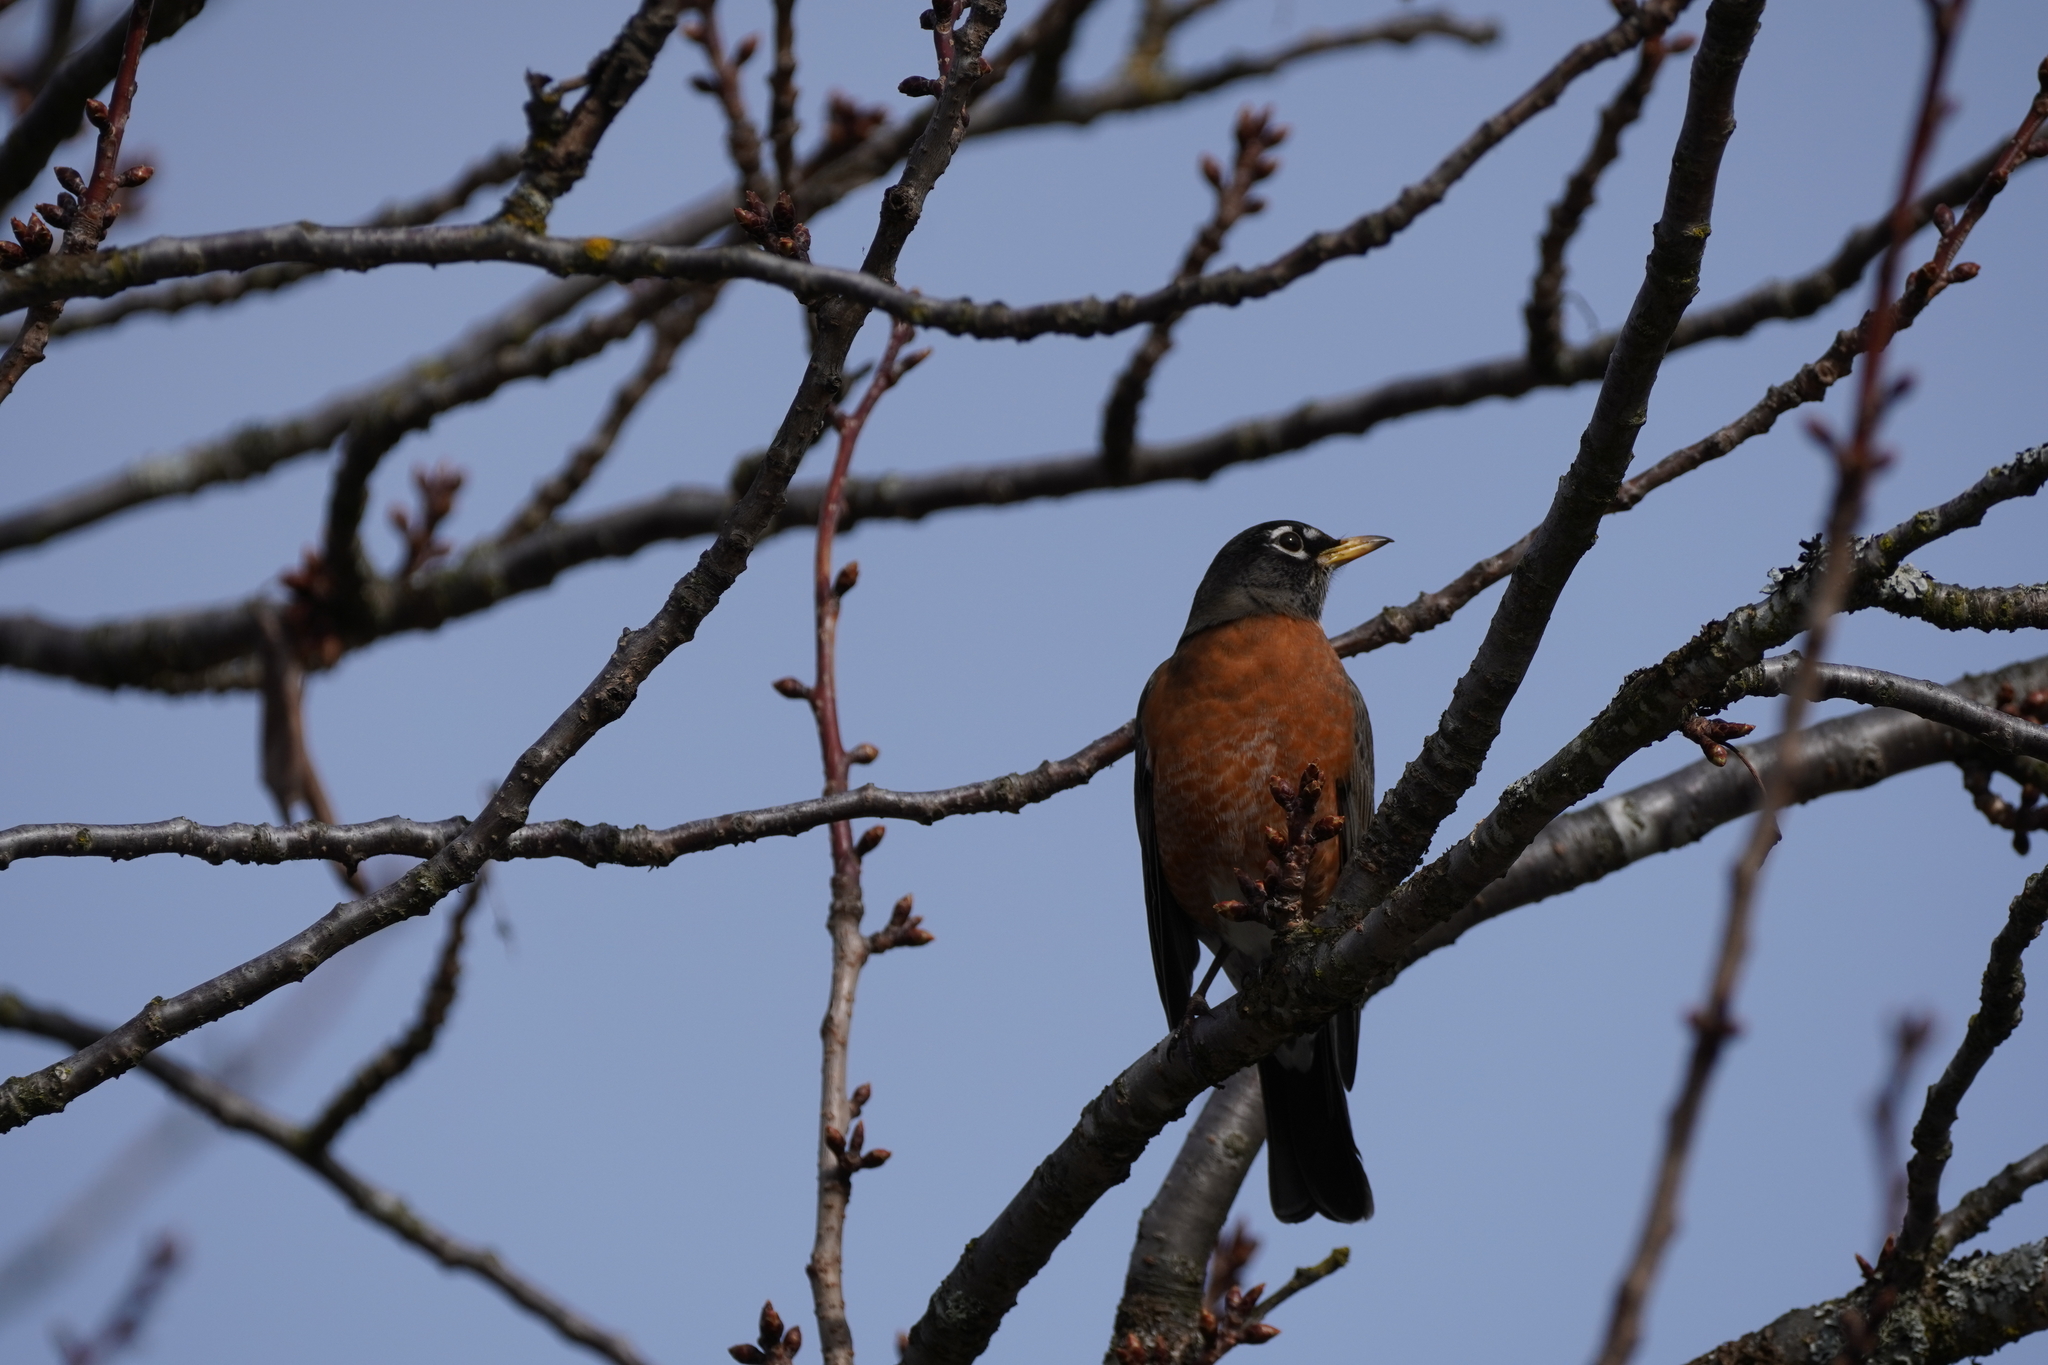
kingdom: Animalia
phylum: Chordata
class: Aves
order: Passeriformes
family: Turdidae
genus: Turdus
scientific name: Turdus migratorius
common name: American robin
